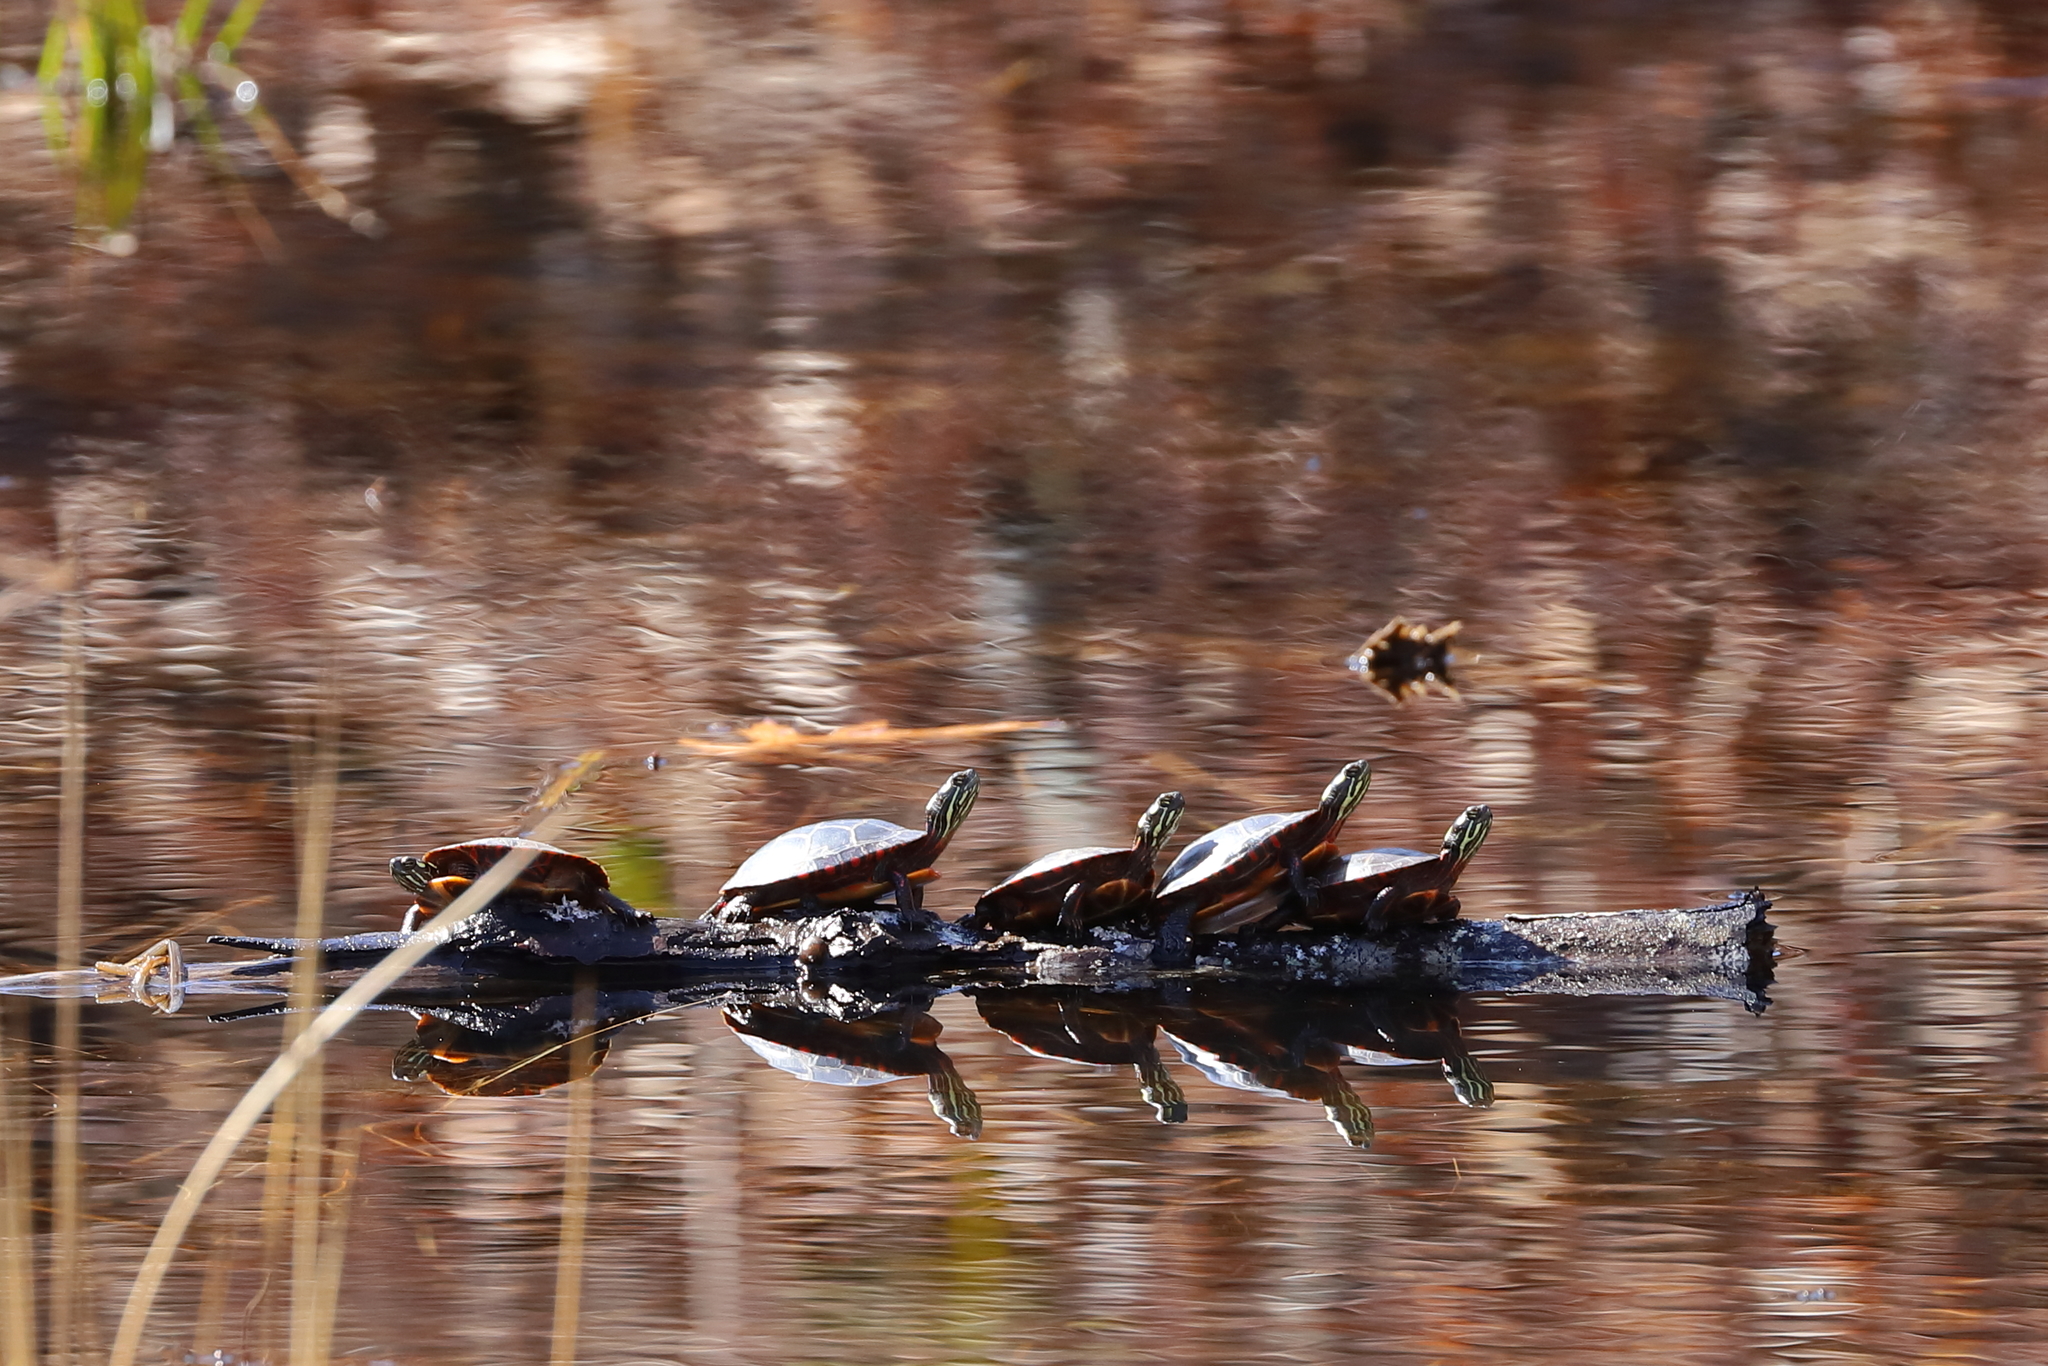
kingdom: Animalia
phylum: Chordata
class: Testudines
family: Emydidae
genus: Chrysemys
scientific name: Chrysemys picta
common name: Painted turtle
